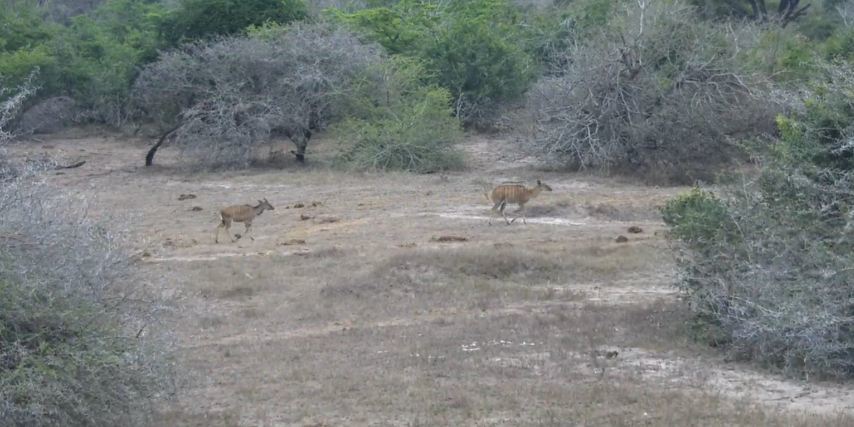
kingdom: Animalia
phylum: Chordata
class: Mammalia
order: Artiodactyla
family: Bovidae
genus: Tragelaphus
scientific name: Tragelaphus angasii
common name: Nyala
